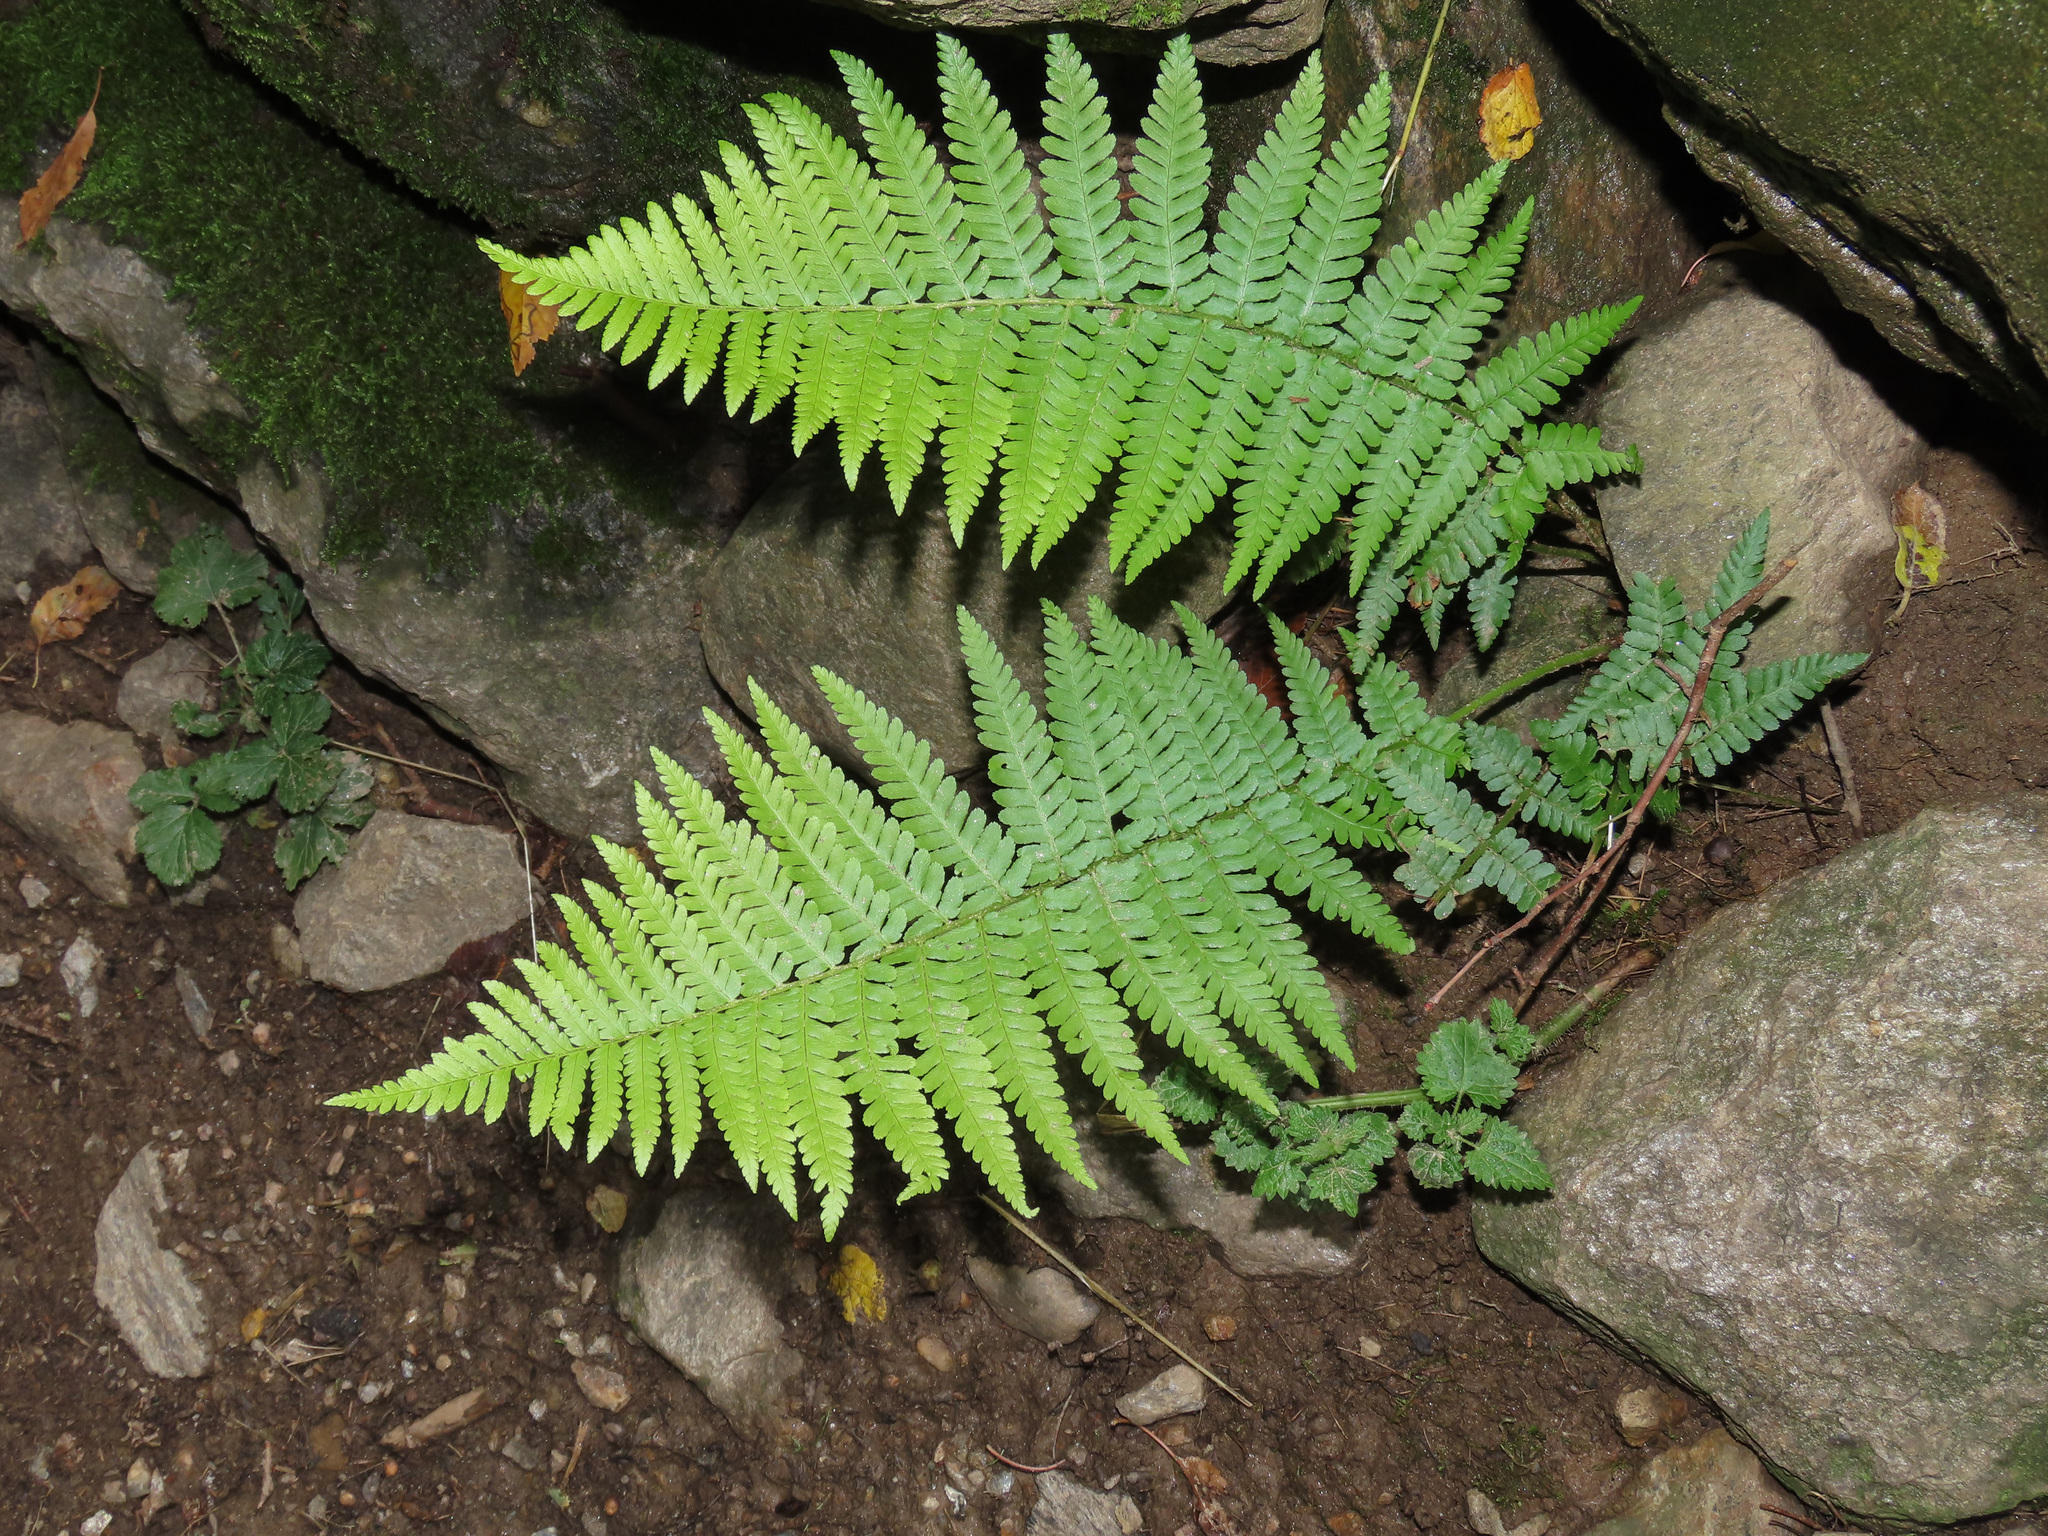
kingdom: Plantae
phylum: Tracheophyta
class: Polypodiopsida
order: Polypodiales
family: Dryopteridaceae
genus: Dryopteris
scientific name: Dryopteris filix-mas
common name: Male fern
